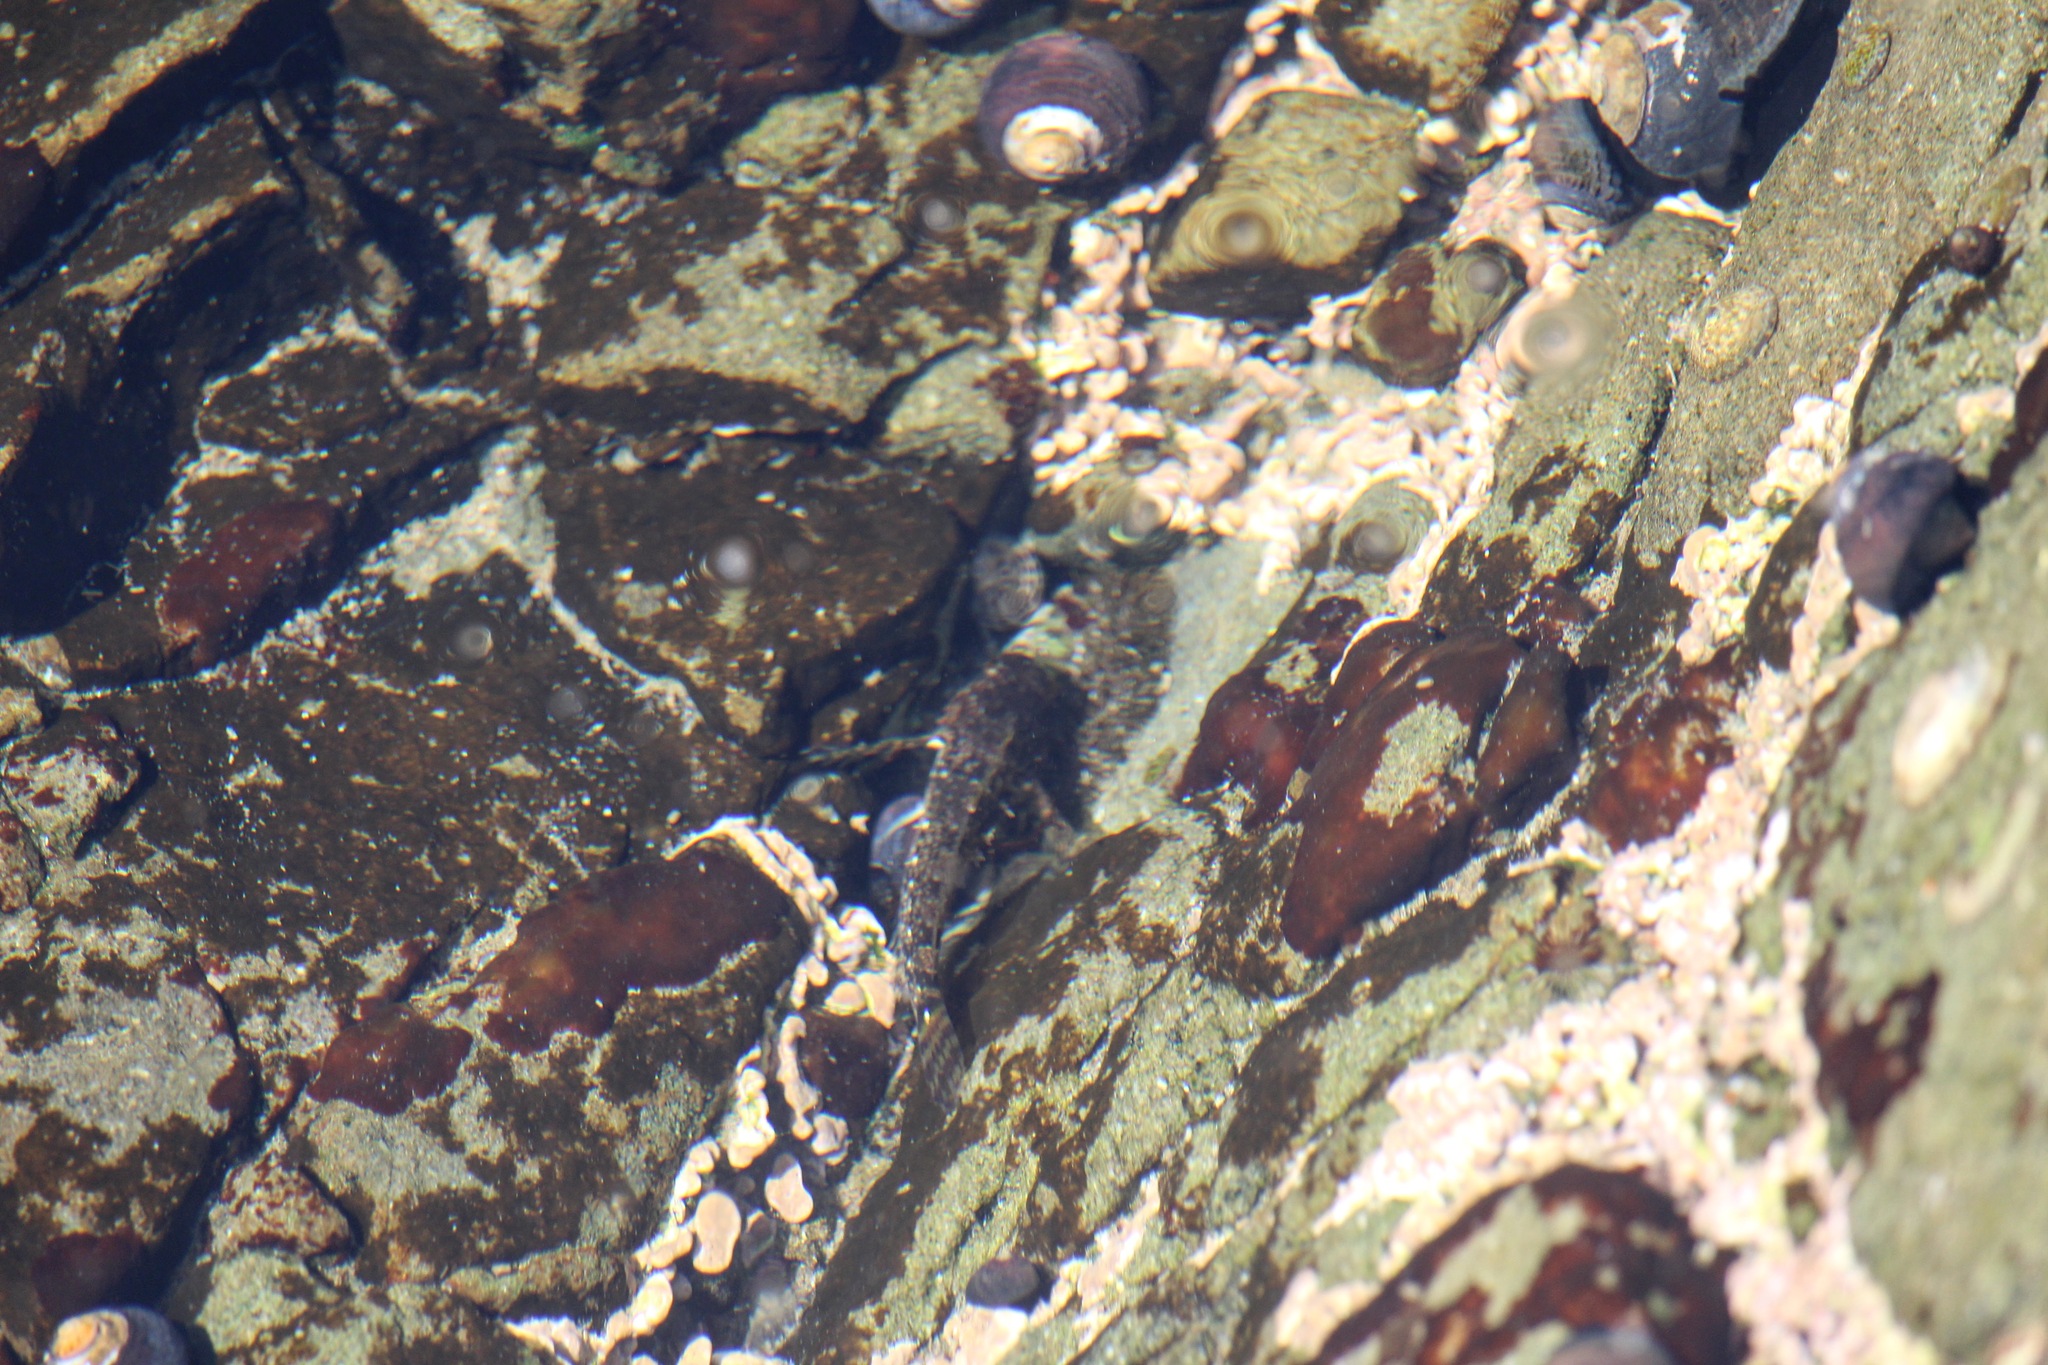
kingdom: Animalia
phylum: Chordata
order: Scorpaeniformes
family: Cottidae
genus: Clinocottus
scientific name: Clinocottus analis
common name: Woolly sculpin
